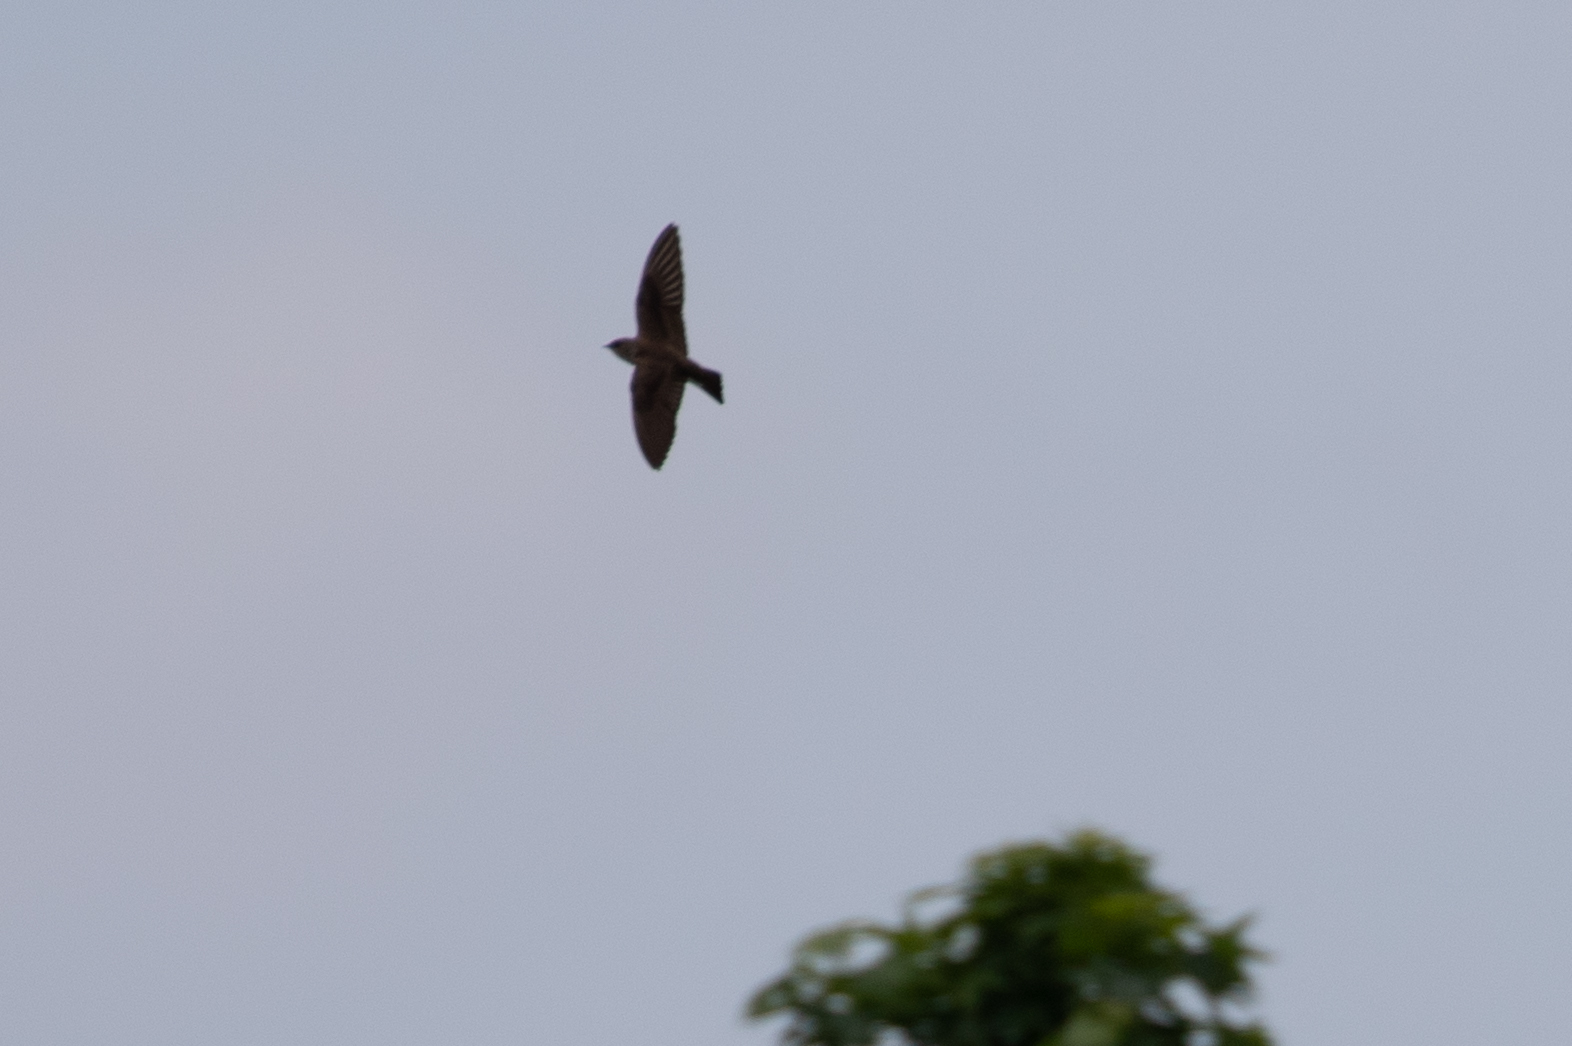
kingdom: Animalia
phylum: Chordata
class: Aves
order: Passeriformes
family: Hirundinidae
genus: Stelgidopteryx
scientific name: Stelgidopteryx serripennis
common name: Northern rough-winged swallow
